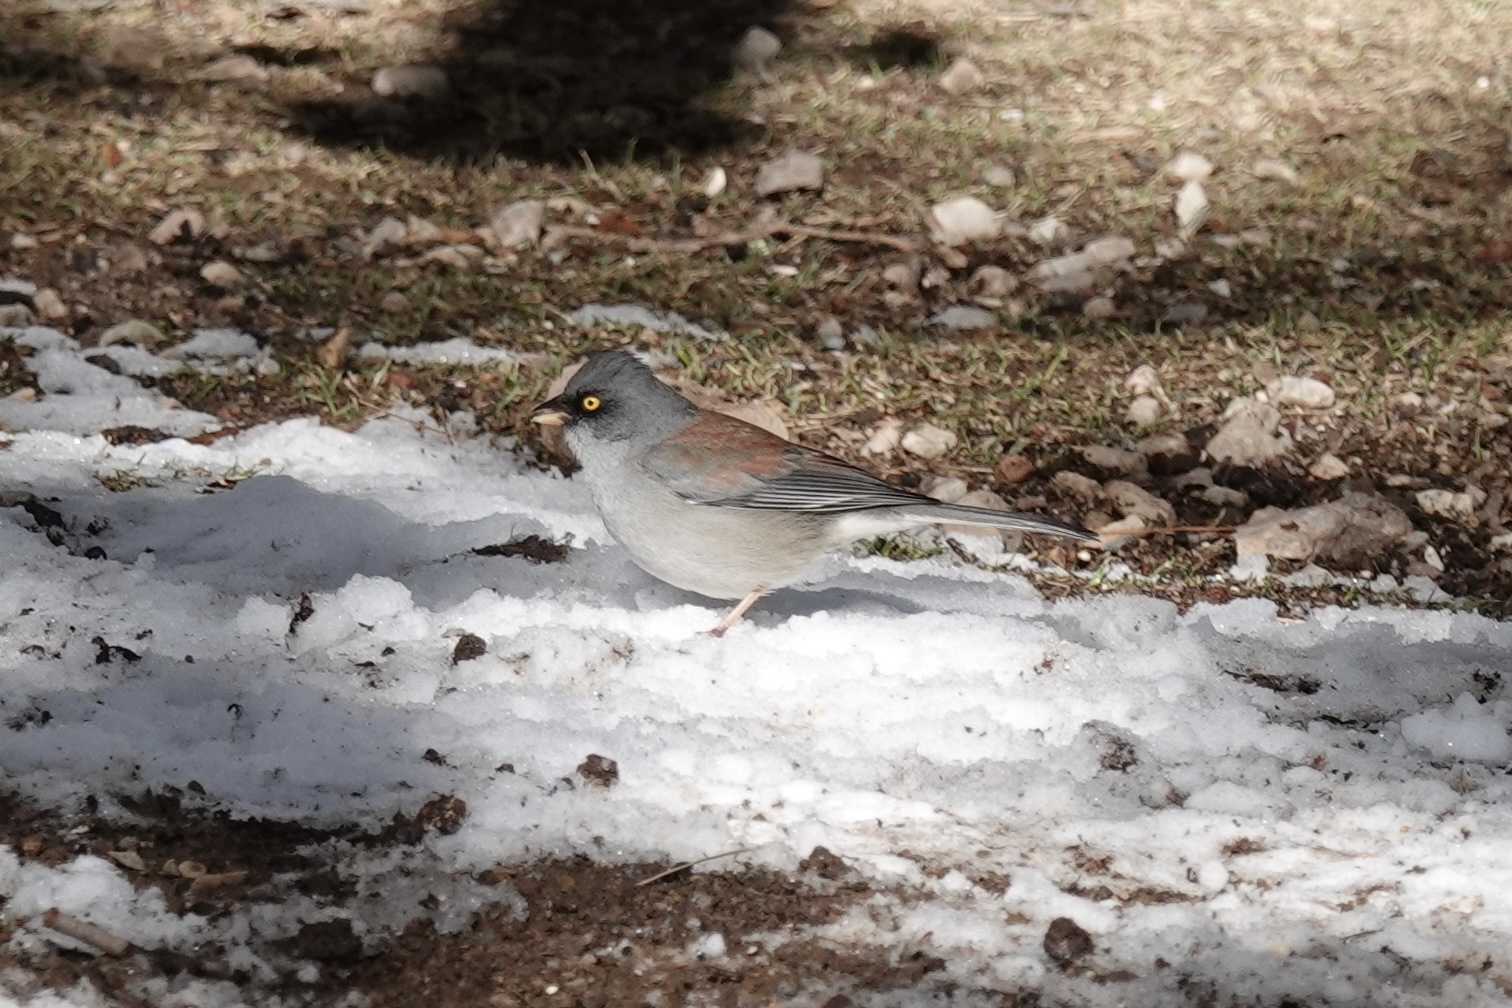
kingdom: Animalia
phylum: Chordata
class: Aves
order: Passeriformes
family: Passerellidae
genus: Junco
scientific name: Junco phaeonotus
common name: Yellow-eyed junco
